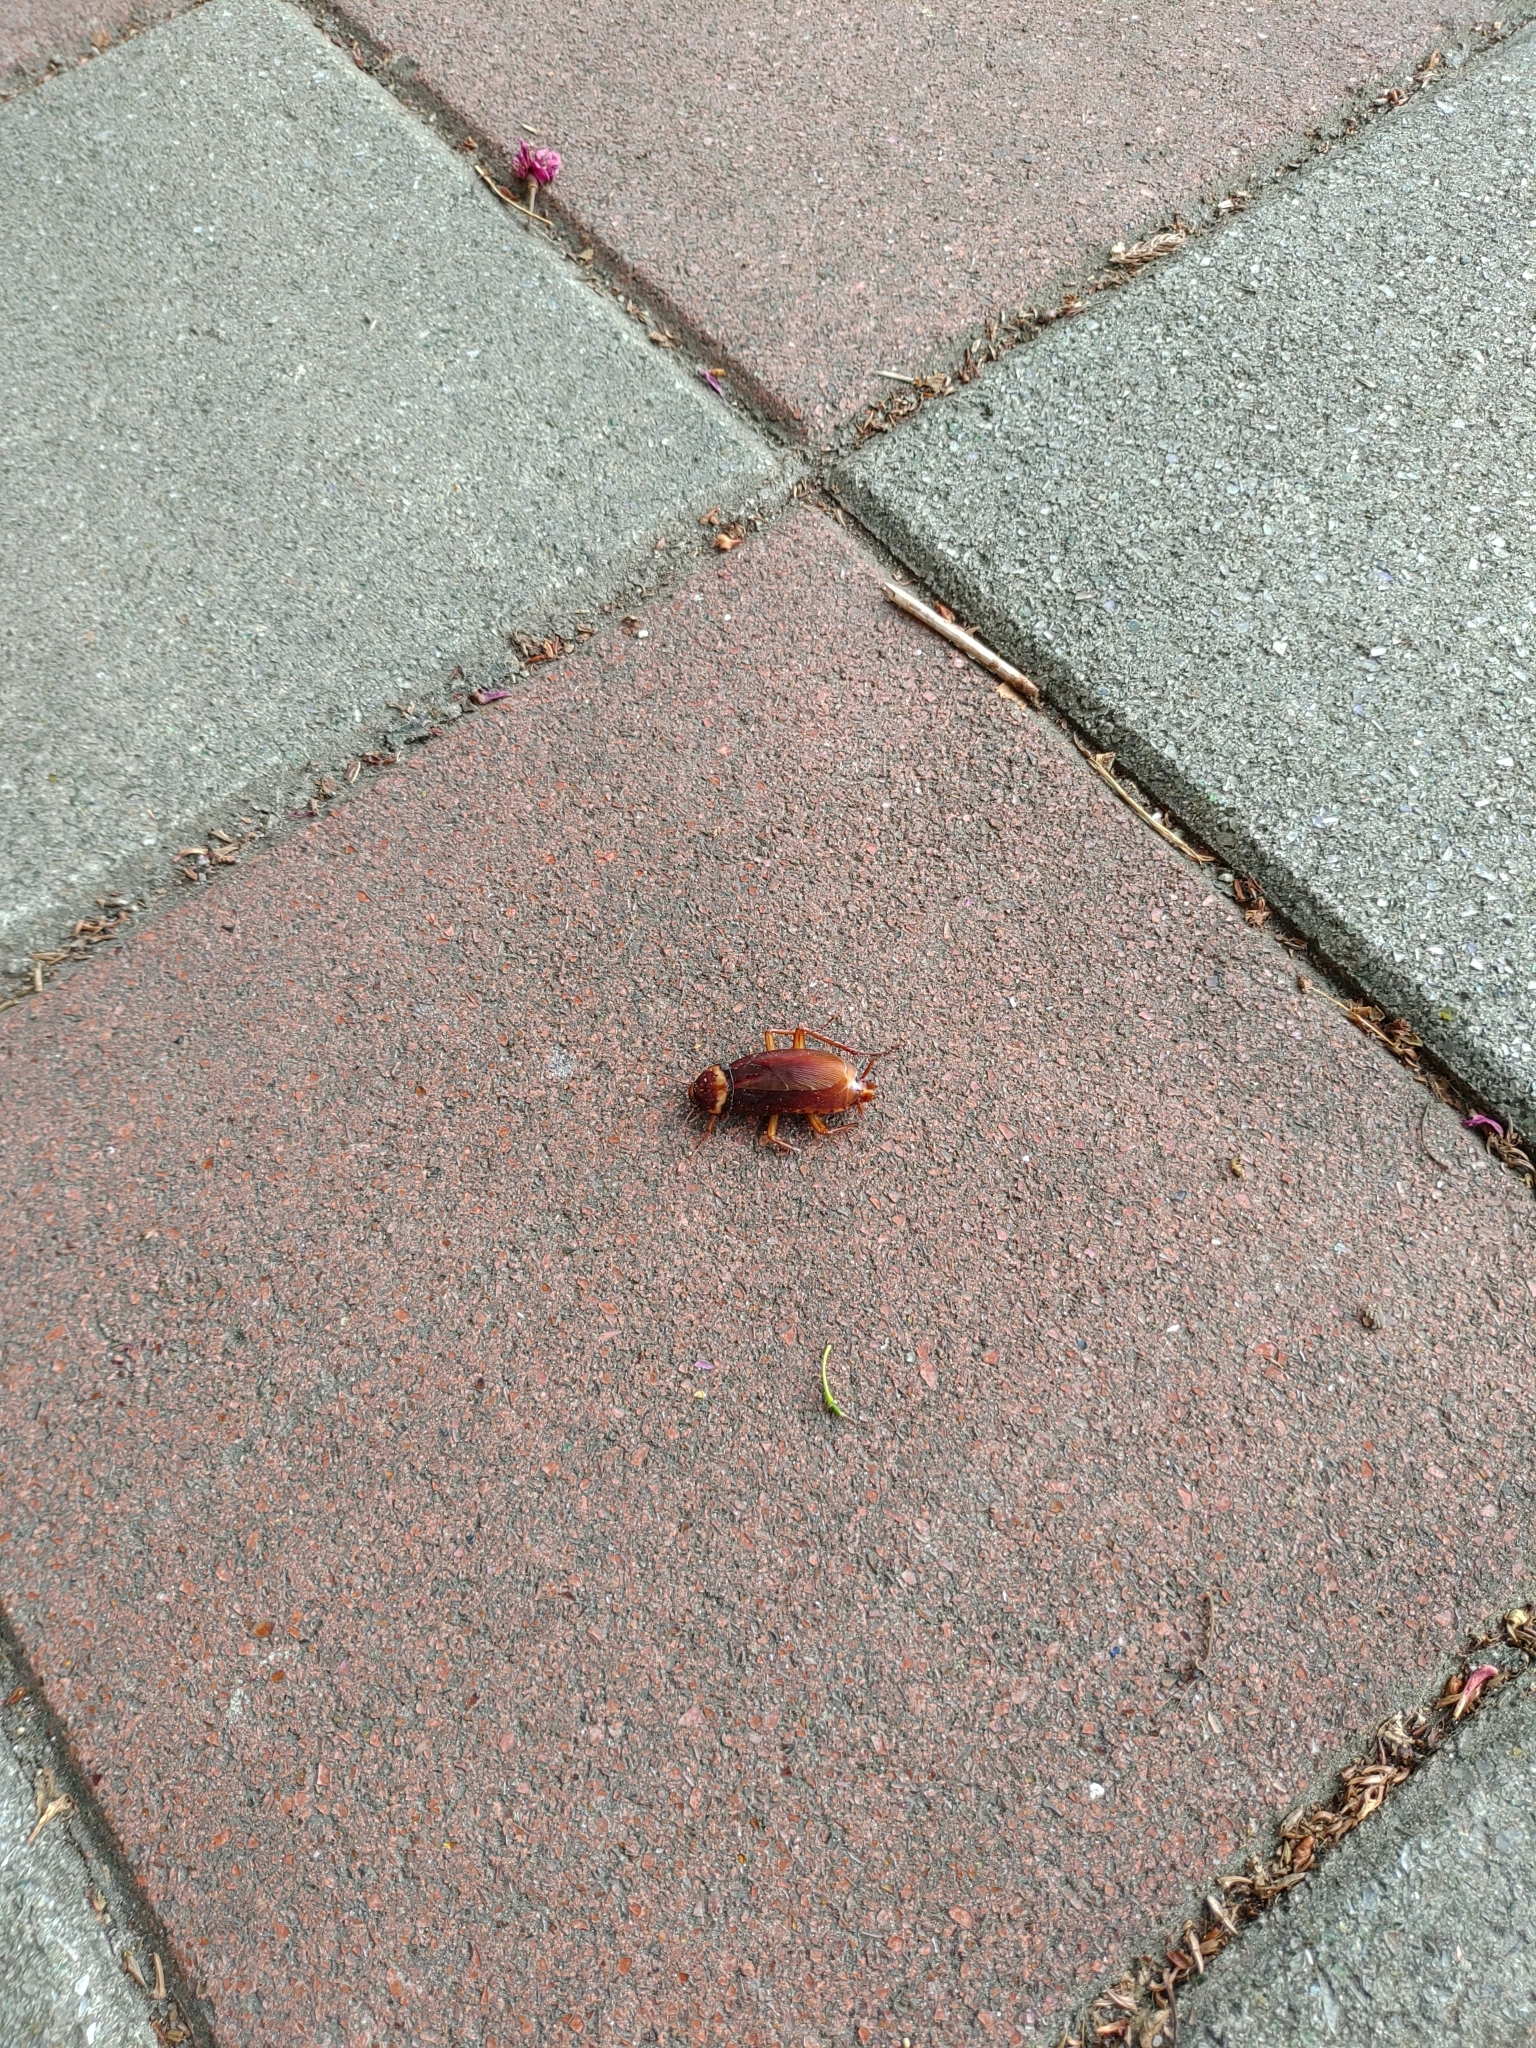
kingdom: Animalia
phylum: Arthropoda
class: Insecta
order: Blattodea
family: Blattidae
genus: Periplaneta
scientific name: Periplaneta americana
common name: American cockroach
